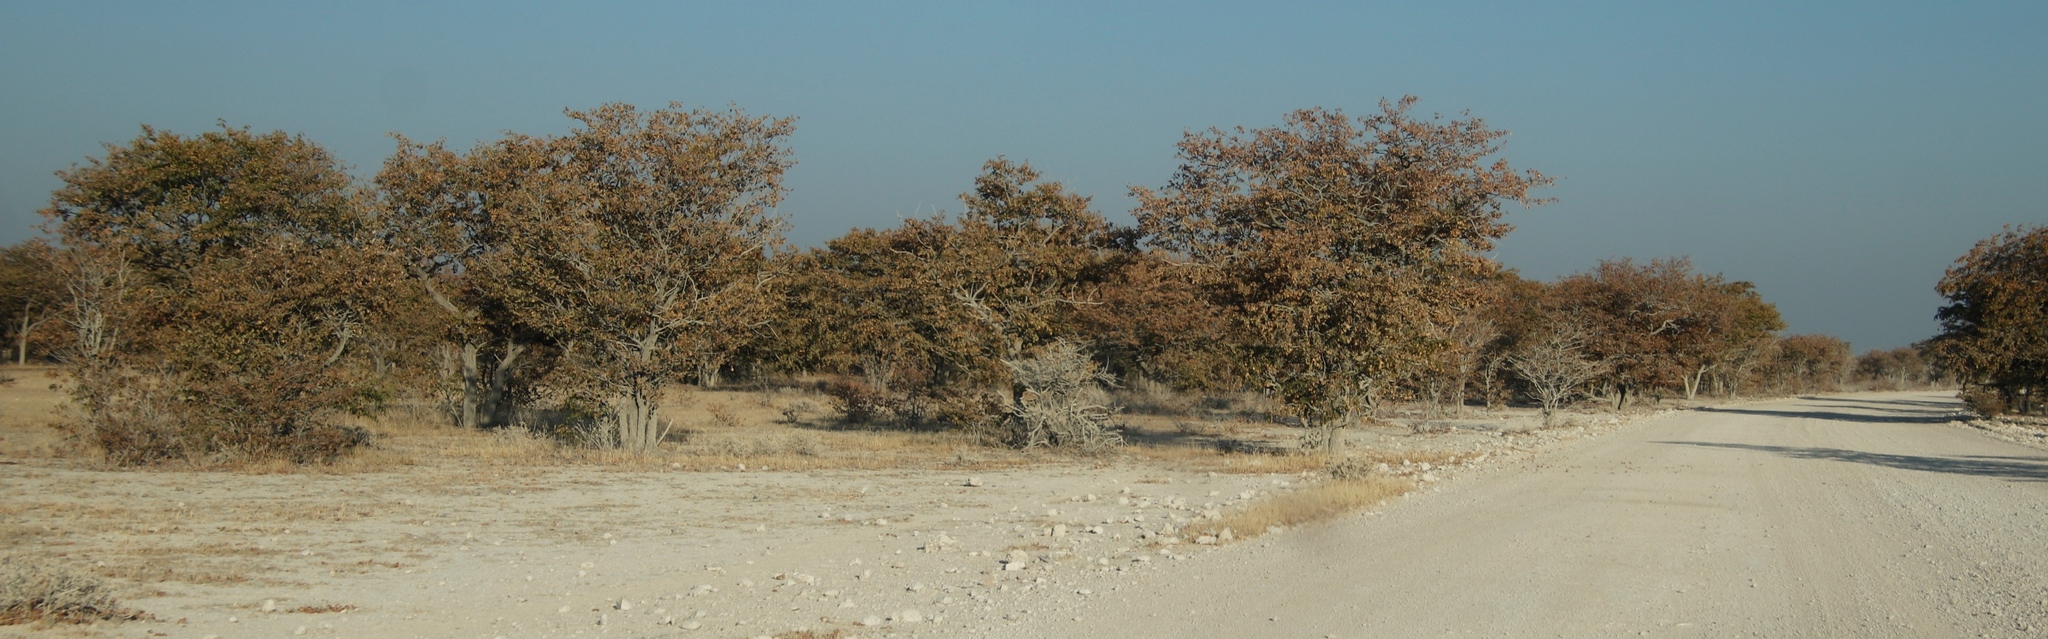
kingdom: Plantae
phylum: Tracheophyta
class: Magnoliopsida
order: Fabales
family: Fabaceae
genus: Colophospermum
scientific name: Colophospermum mopane
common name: Mopane
